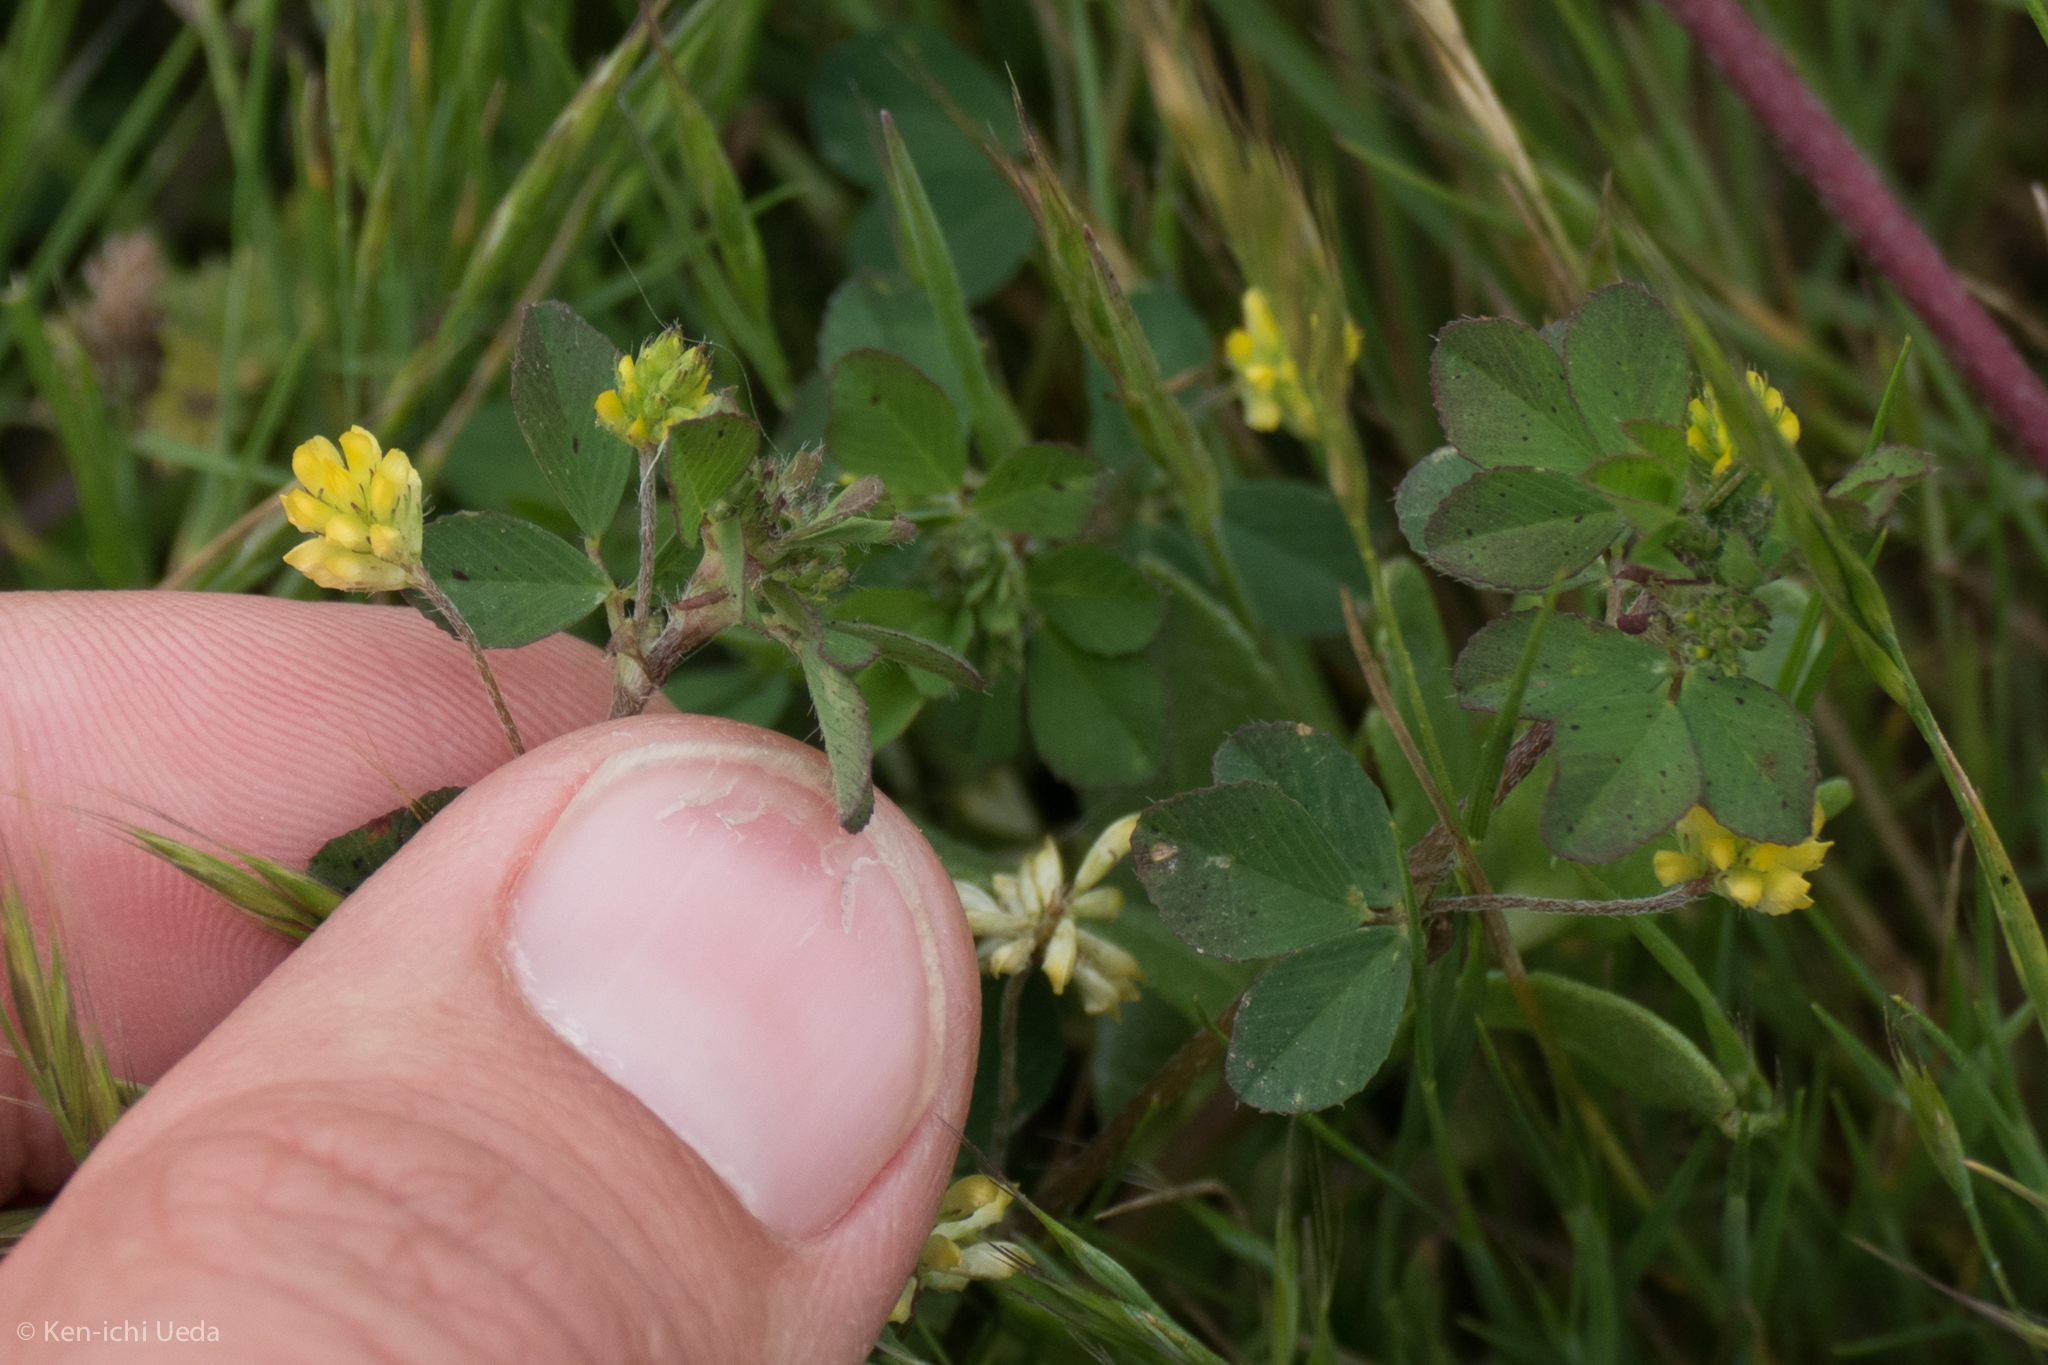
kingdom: Plantae
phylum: Tracheophyta
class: Magnoliopsida
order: Fabales
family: Fabaceae
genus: Trifolium
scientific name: Trifolium dubium
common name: Suckling clover
